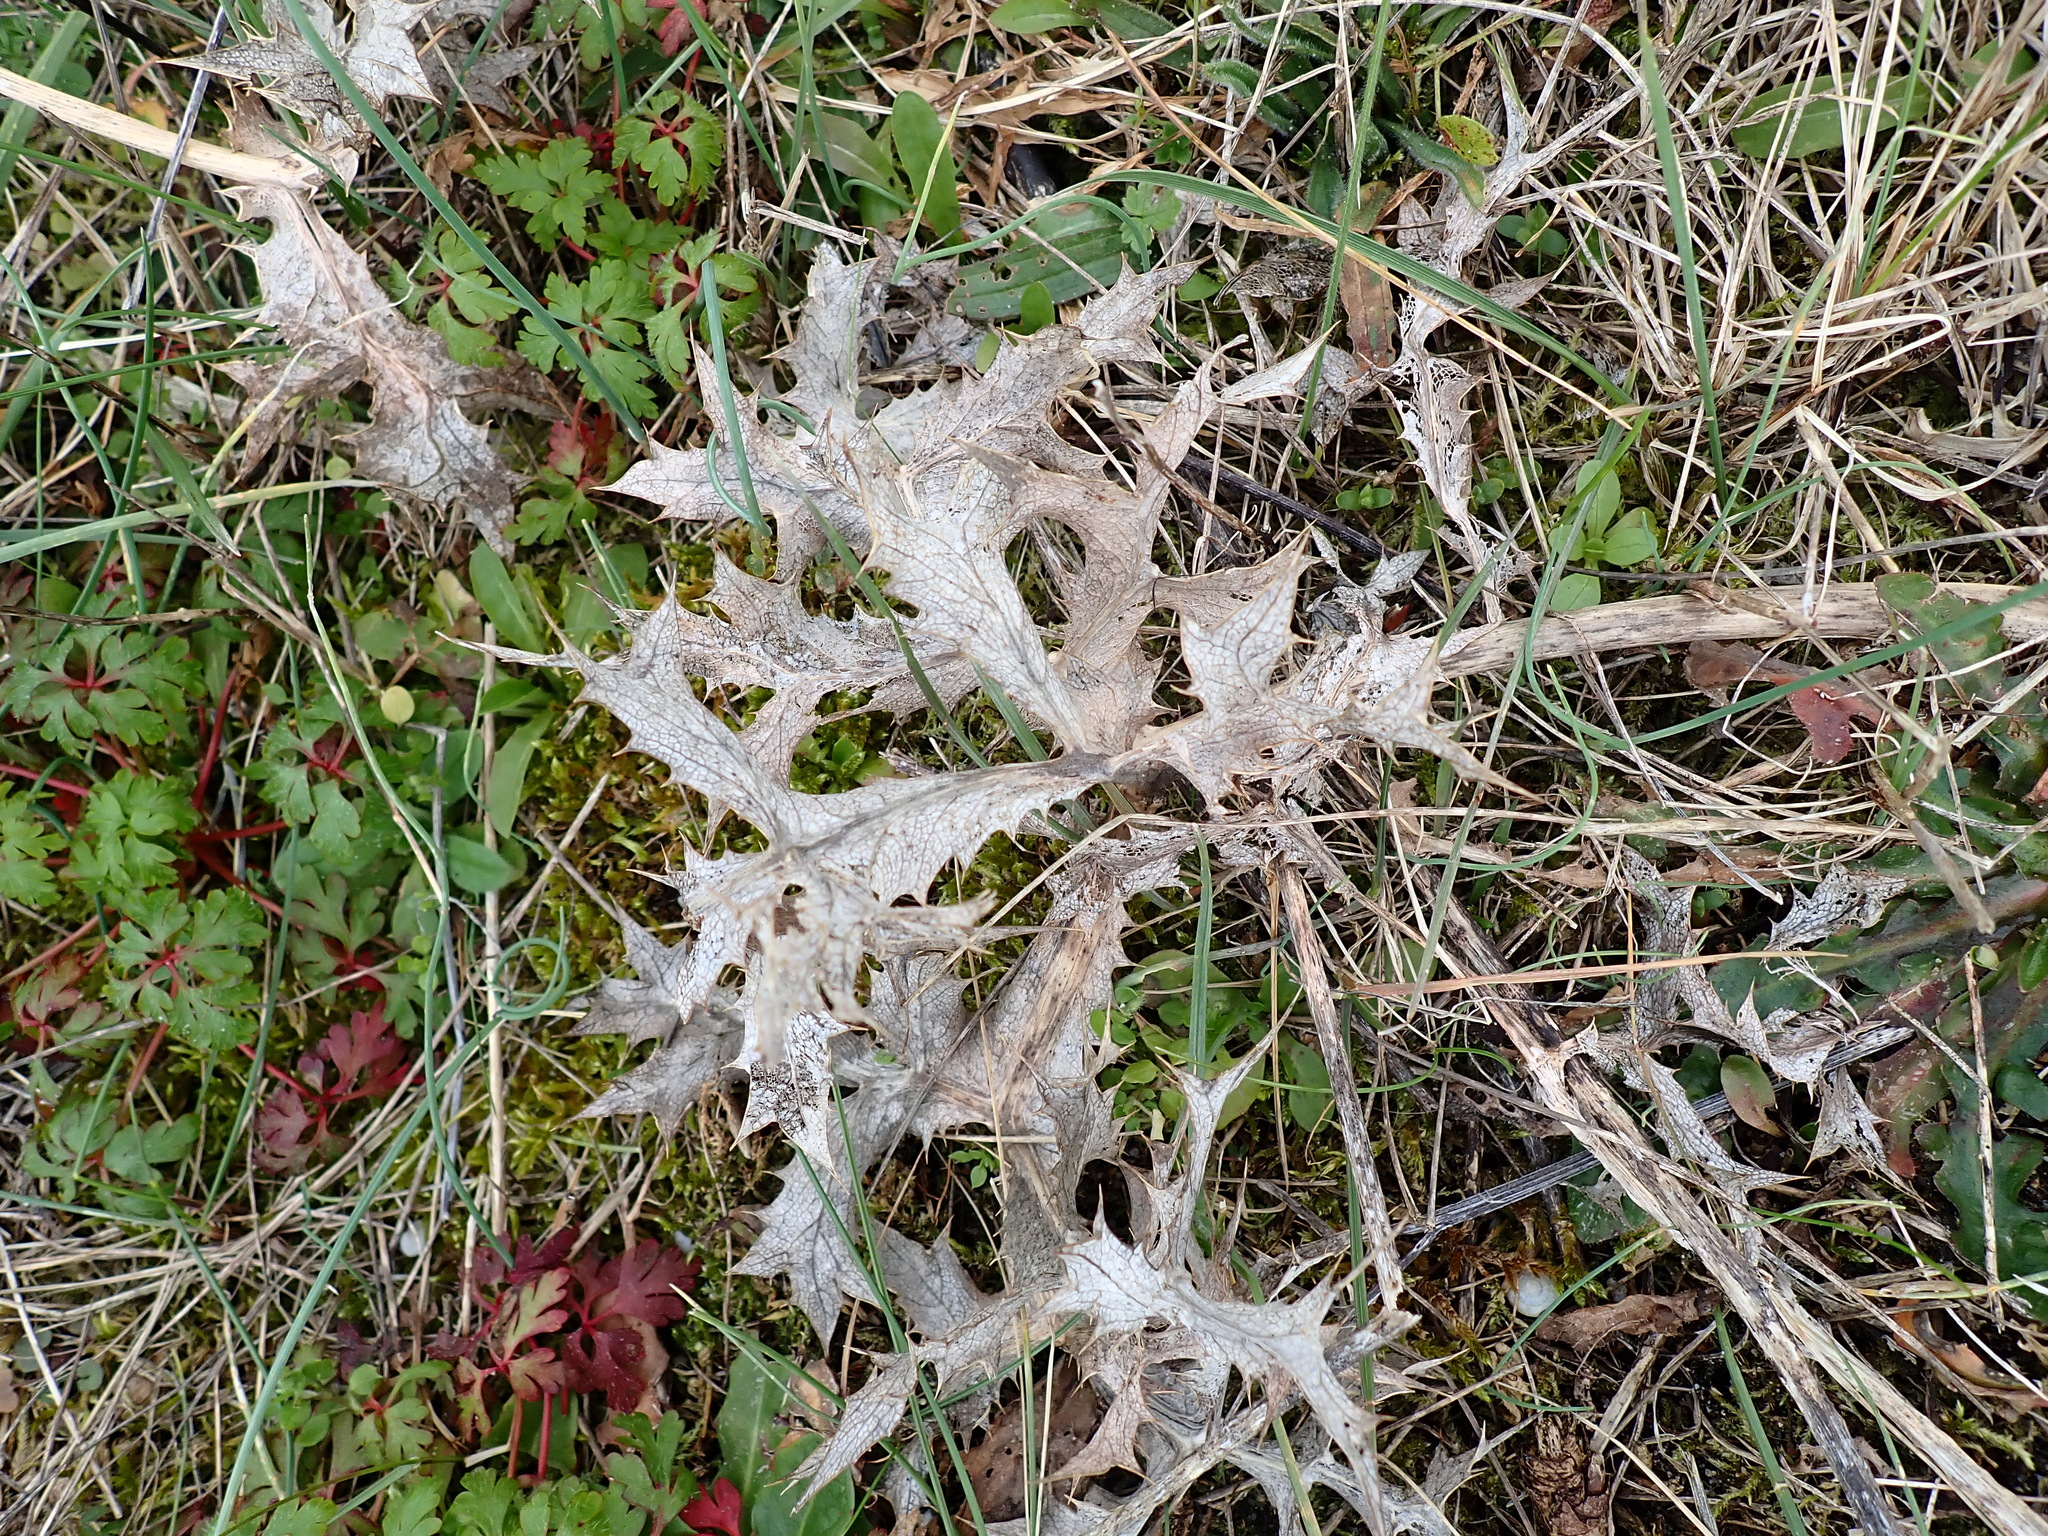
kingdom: Plantae
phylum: Tracheophyta
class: Magnoliopsida
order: Apiales
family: Apiaceae
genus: Eryngium
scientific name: Eryngium campestre
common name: Field eryngo
